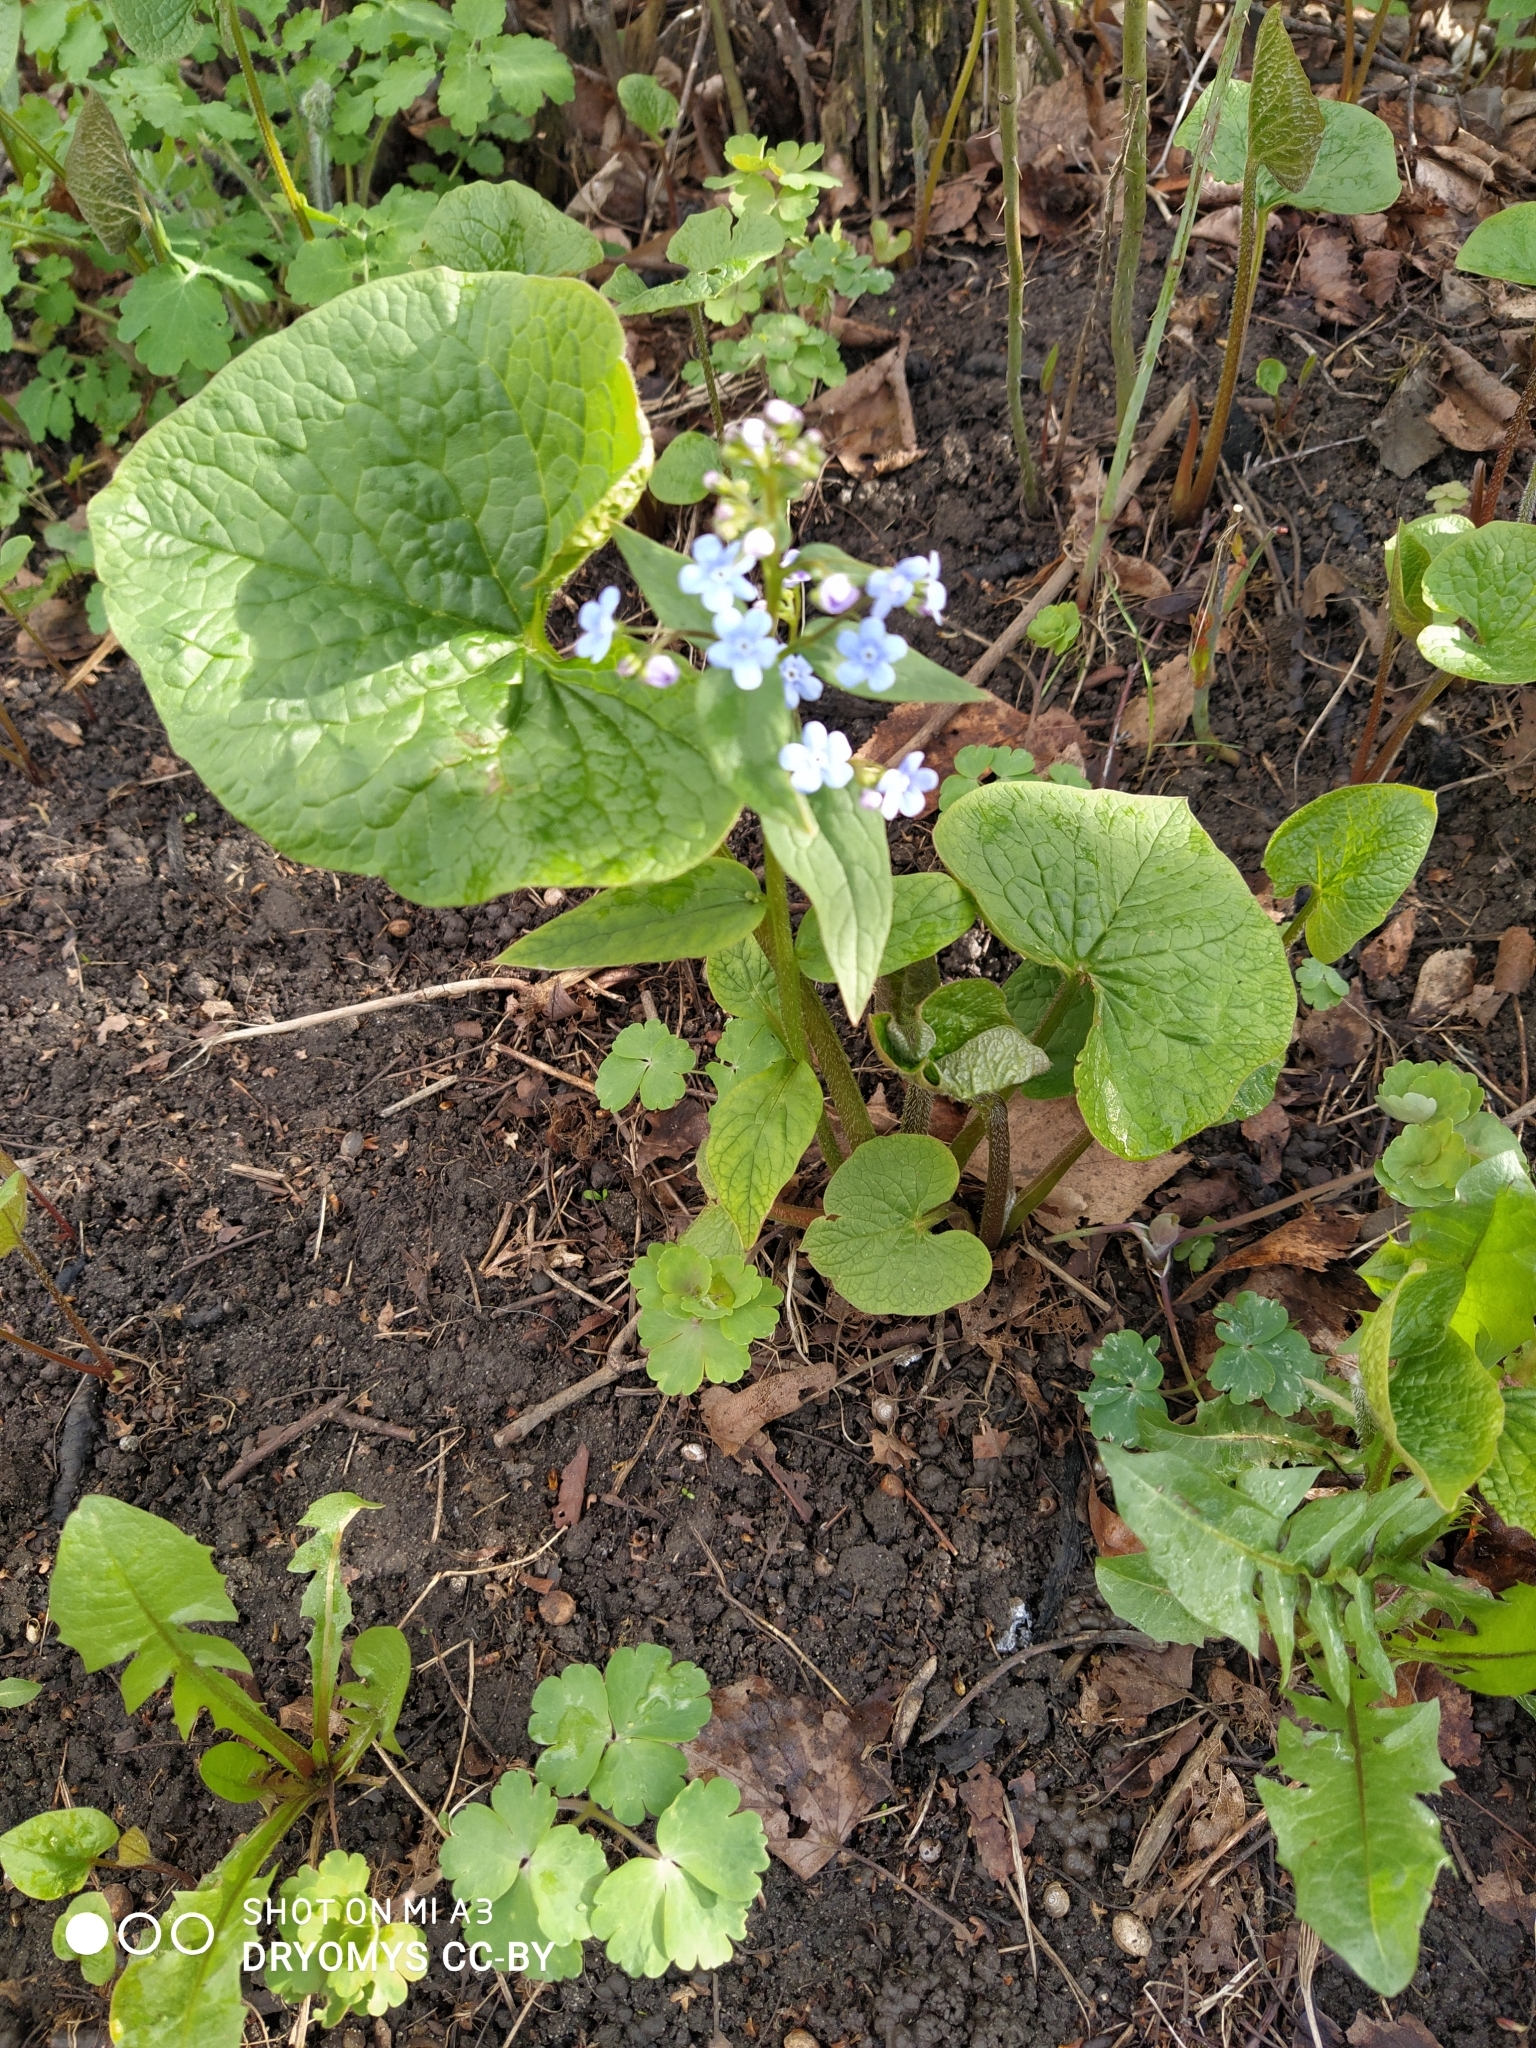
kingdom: Plantae
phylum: Tracheophyta
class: Magnoliopsida
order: Boraginales
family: Boraginaceae
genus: Brunnera
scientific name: Brunnera sibirica
